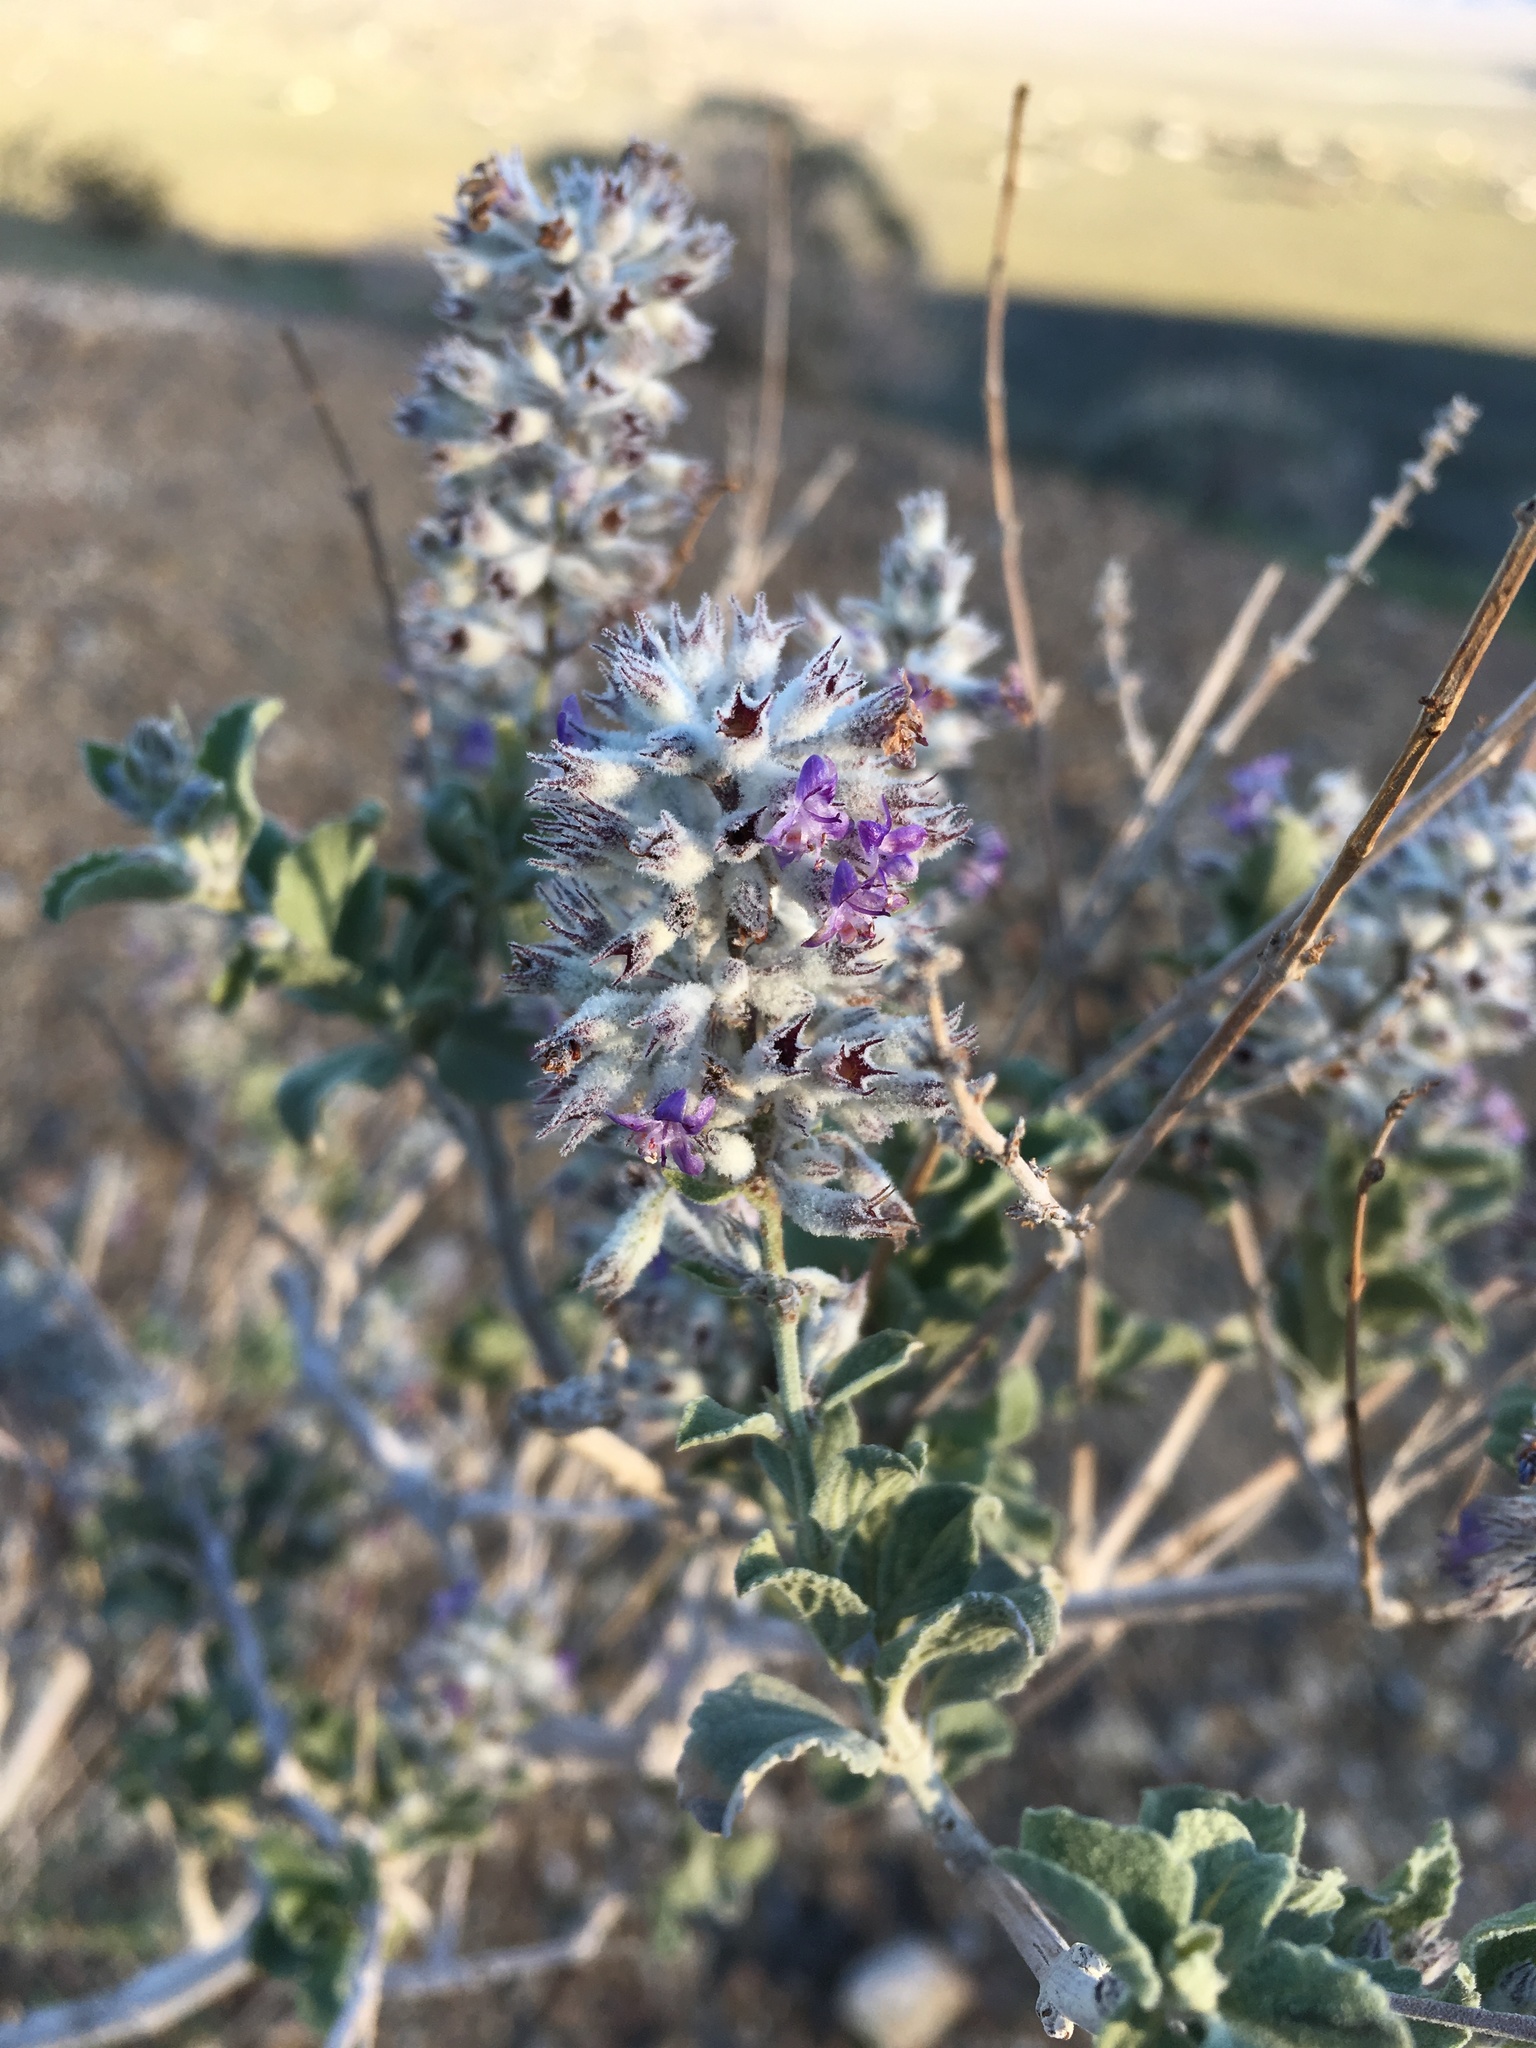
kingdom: Plantae
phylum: Tracheophyta
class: Magnoliopsida
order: Lamiales
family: Lamiaceae
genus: Condea
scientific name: Condea emoryi
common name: Chia
